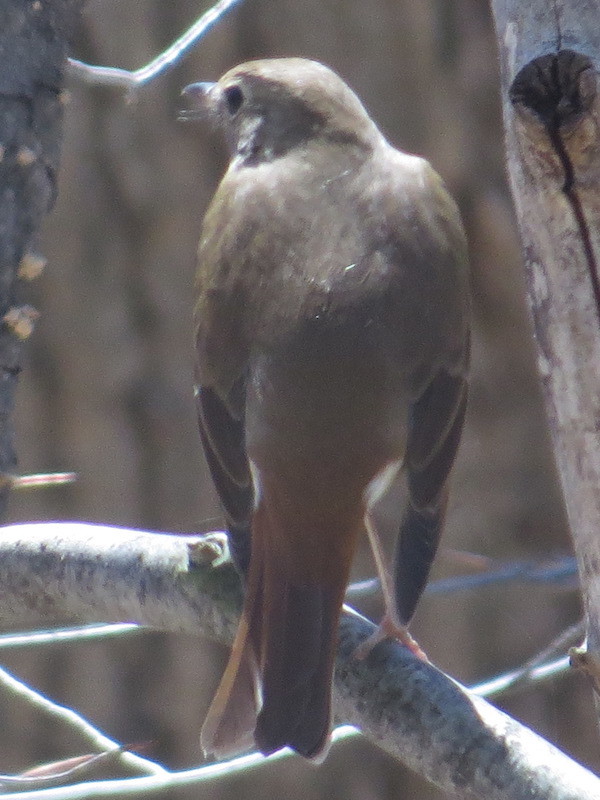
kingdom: Animalia
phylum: Chordata
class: Aves
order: Passeriformes
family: Turdidae
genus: Catharus
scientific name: Catharus guttatus
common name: Hermit thrush
